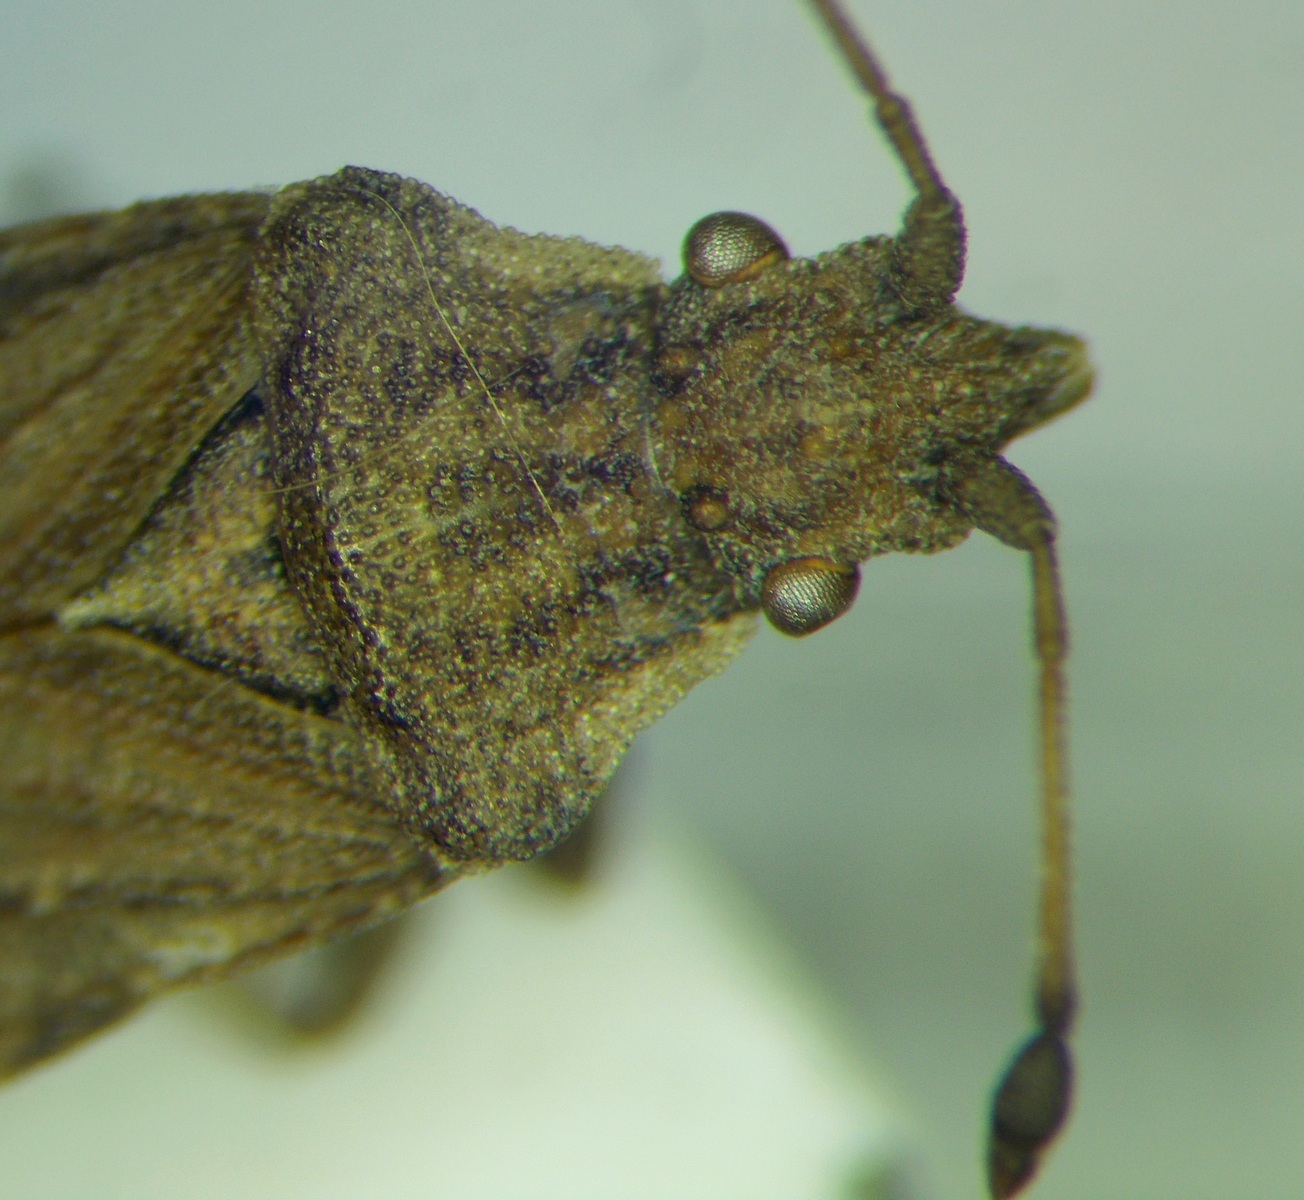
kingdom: Animalia
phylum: Arthropoda
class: Insecta
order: Hemiptera
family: Coreidae
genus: Bathysolen
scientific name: Bathysolen nubilus
